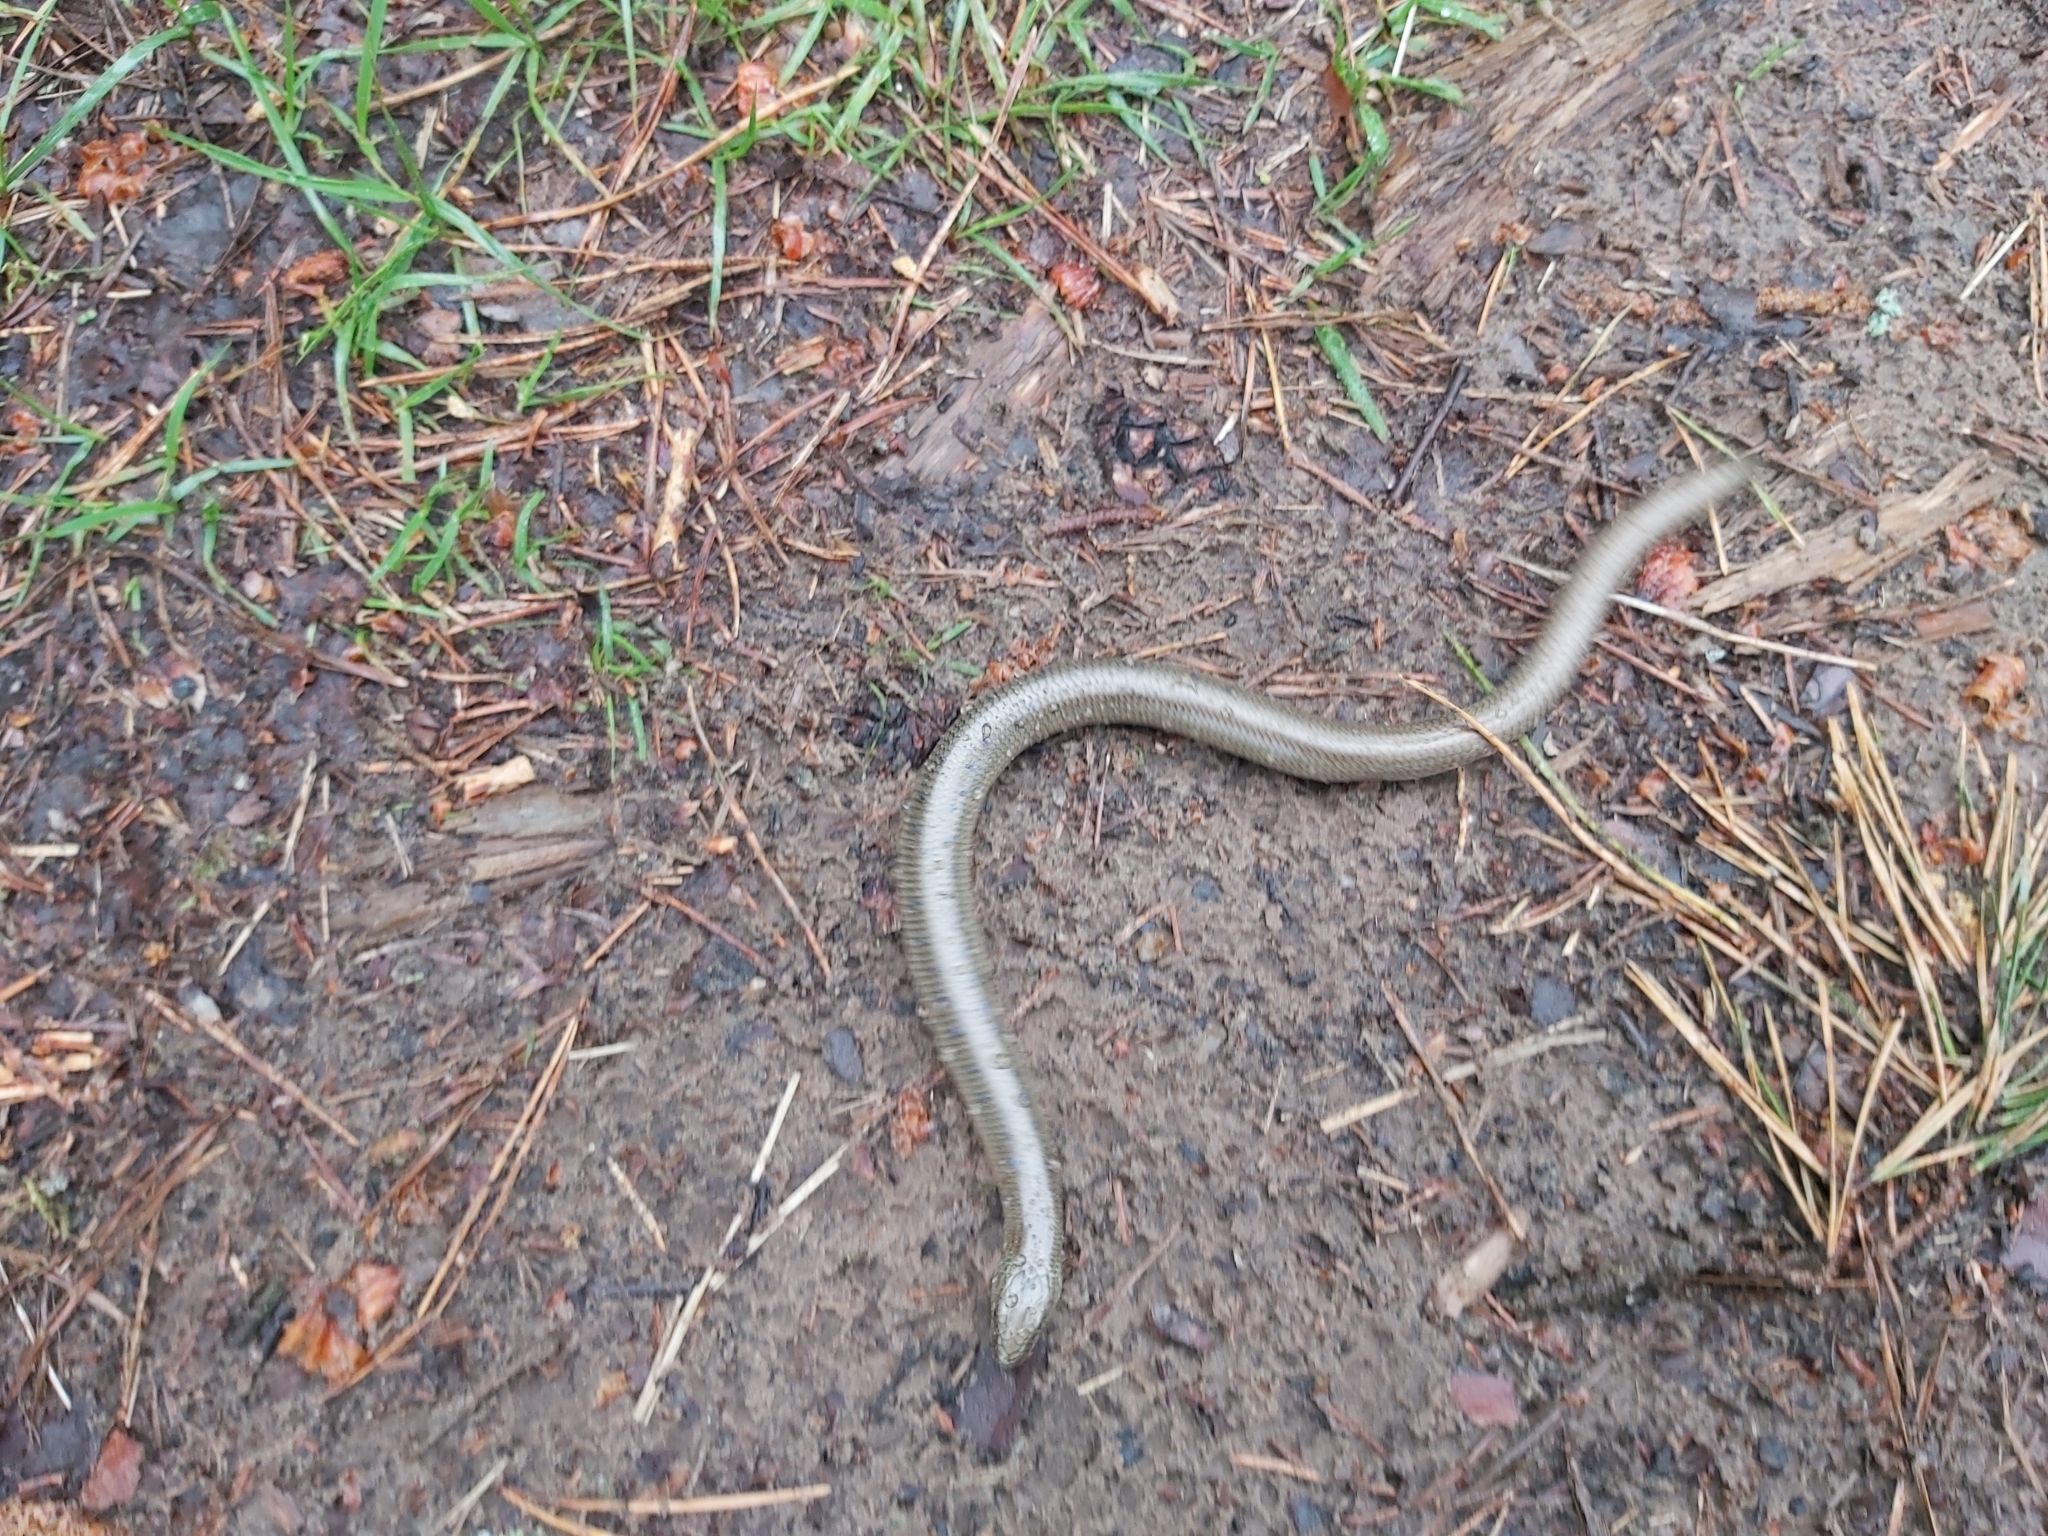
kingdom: Animalia
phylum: Chordata
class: Squamata
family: Anguidae
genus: Anguis
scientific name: Anguis colchica
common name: Slow worm
